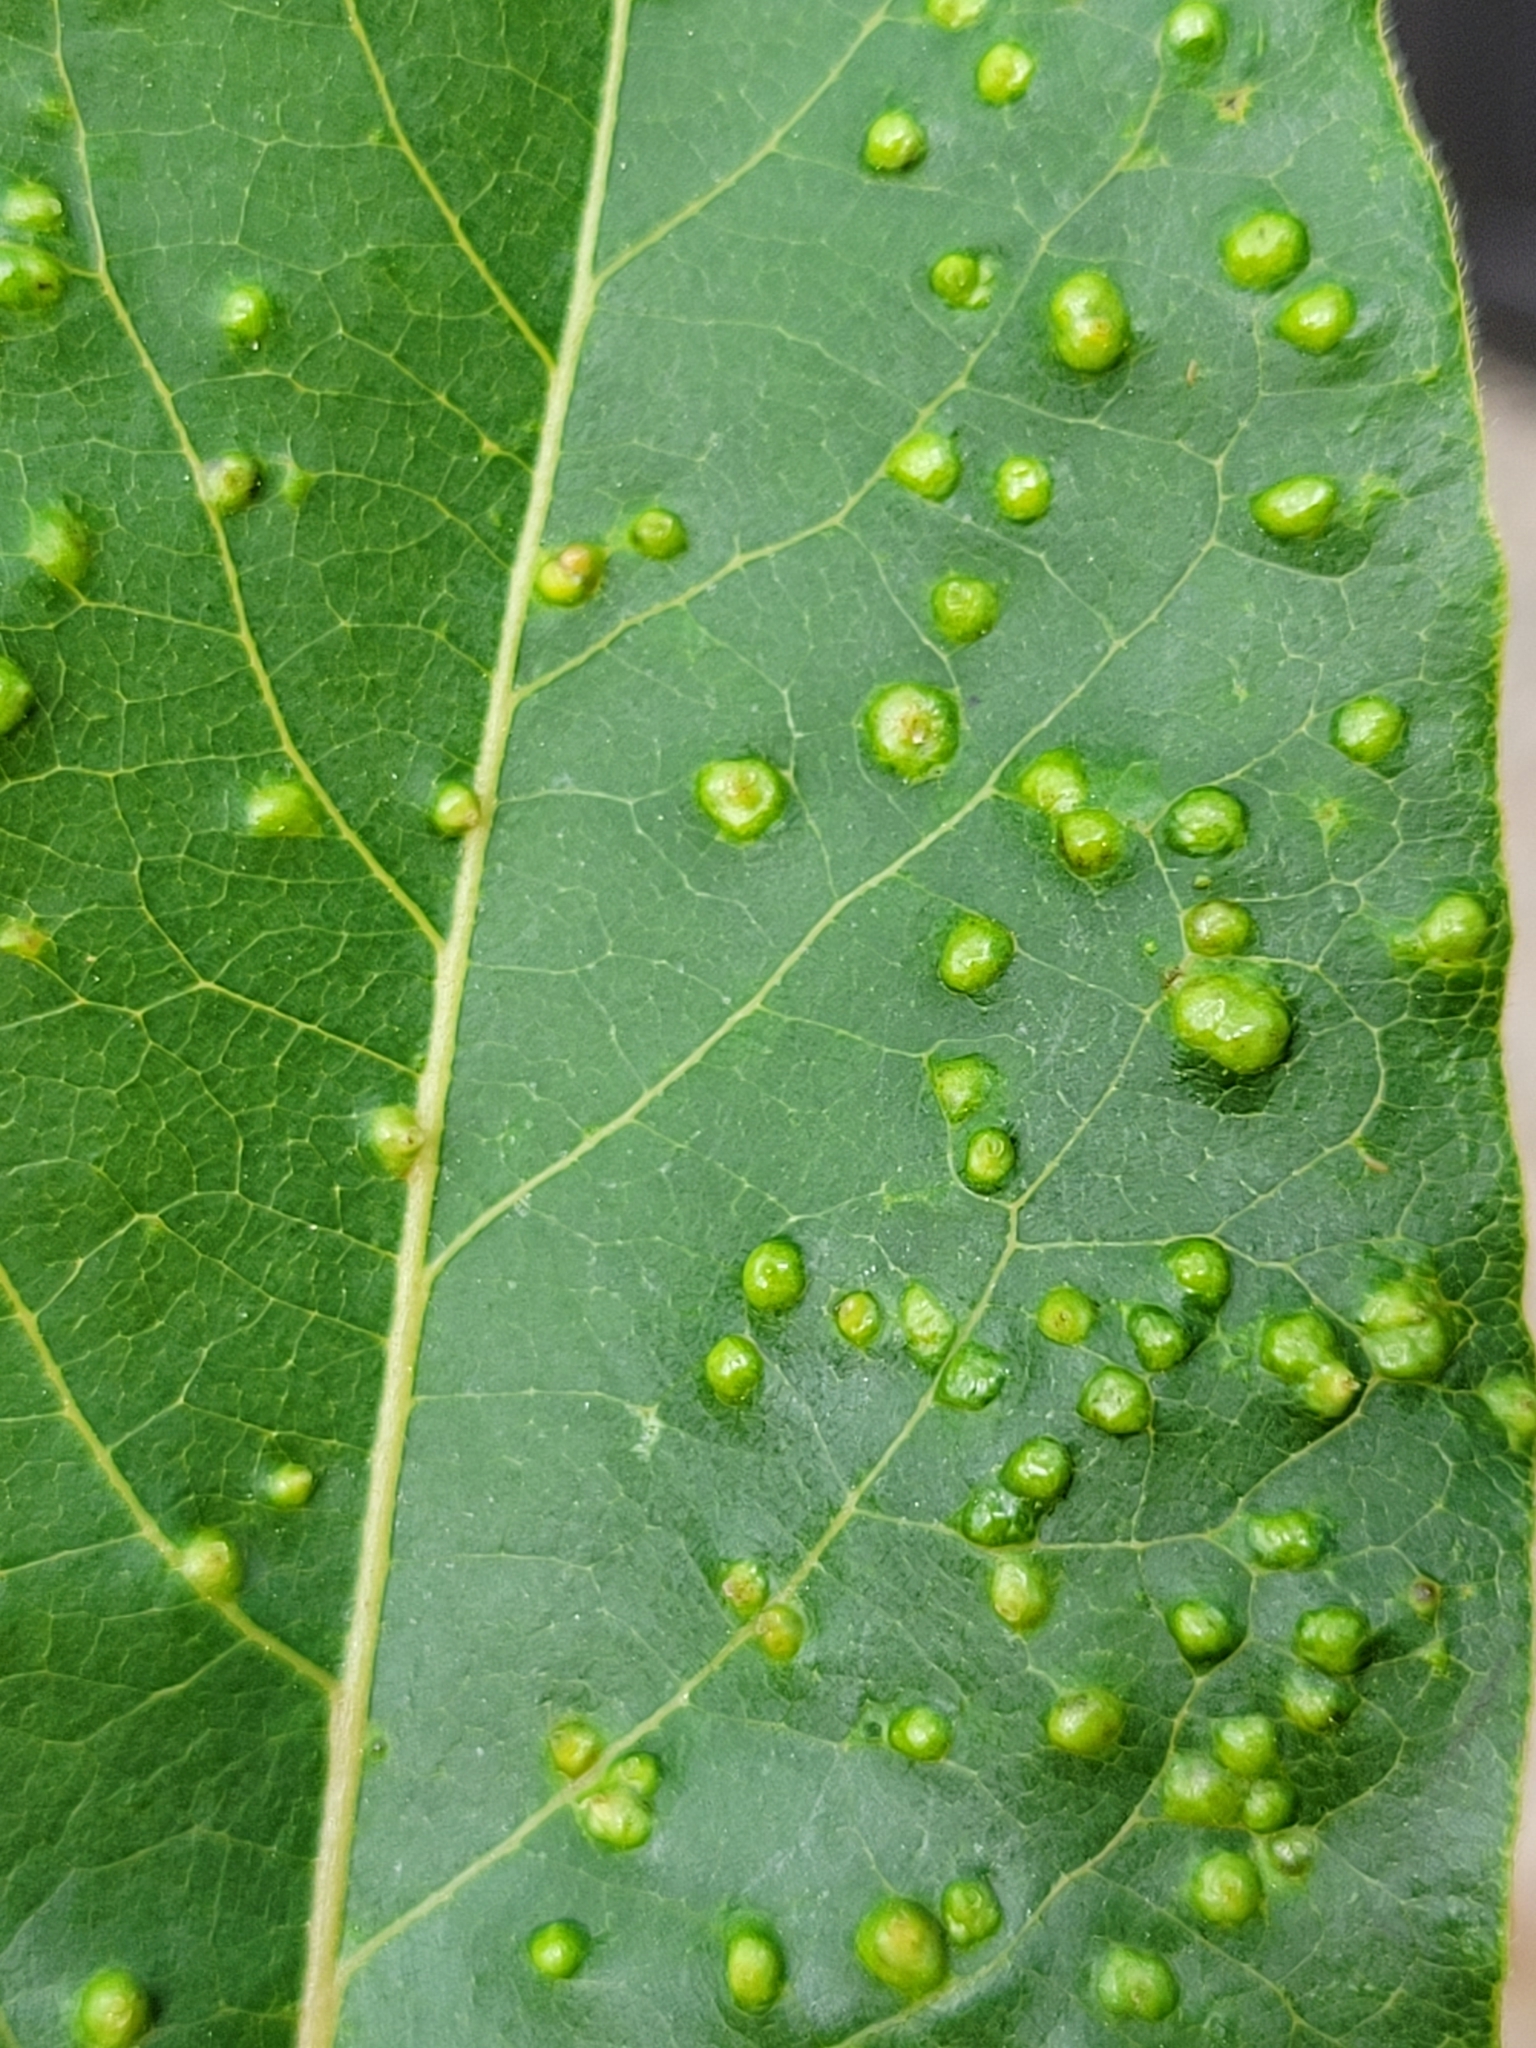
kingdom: Animalia
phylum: Arthropoda
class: Arachnida
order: Trombidiformes
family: Eriophyidae
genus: Aceria
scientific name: Aceria
